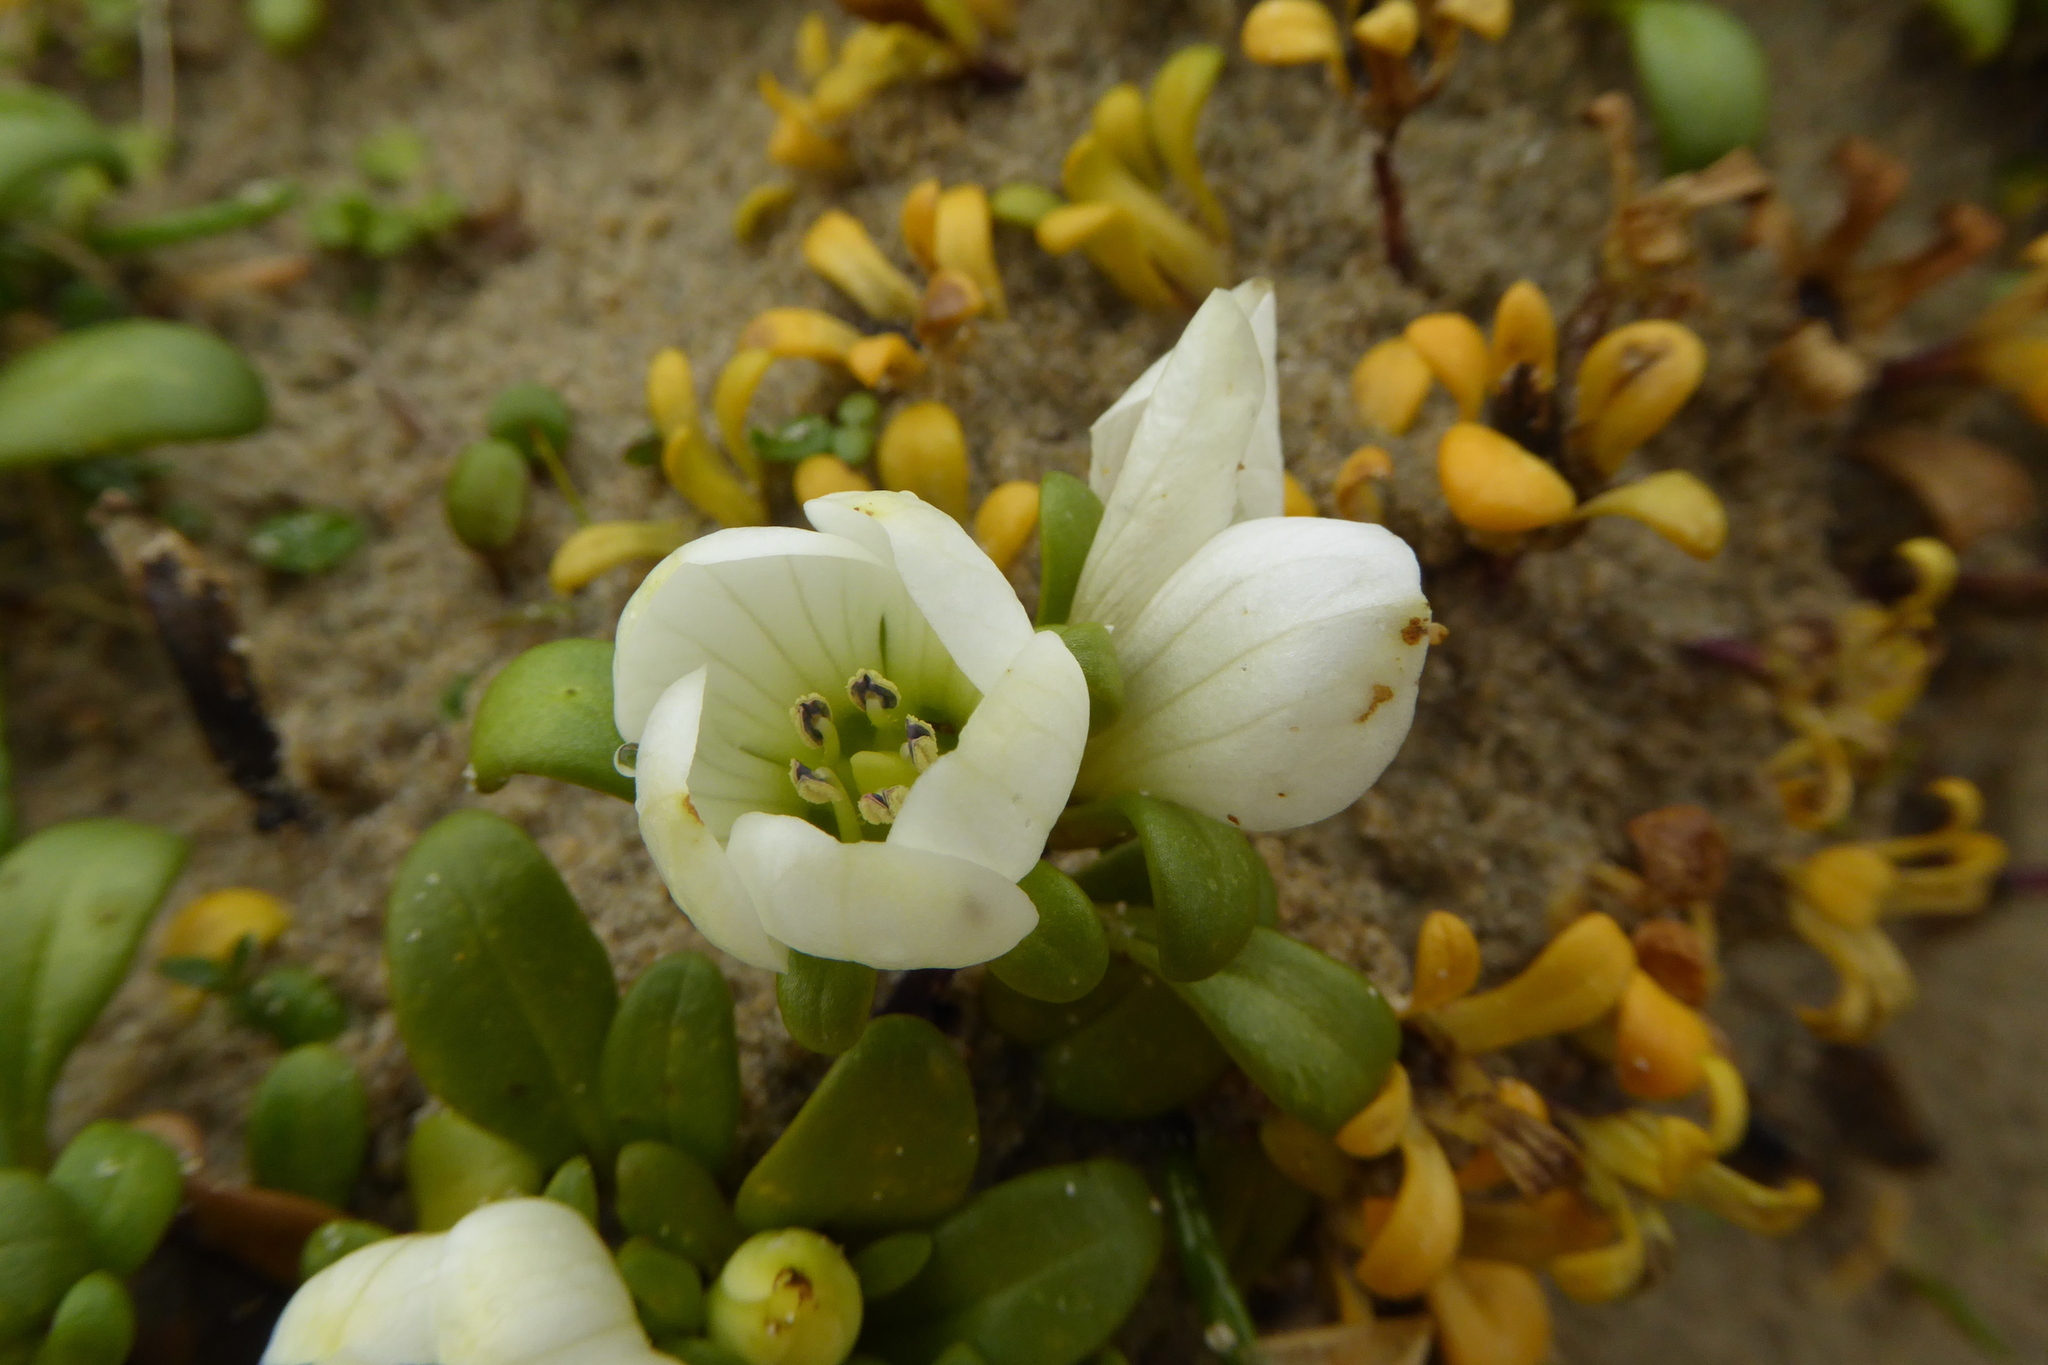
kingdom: Plantae
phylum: Tracheophyta
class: Magnoliopsida
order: Gentianales
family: Gentianaceae
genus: Gentianella
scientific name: Gentianella saxosa
